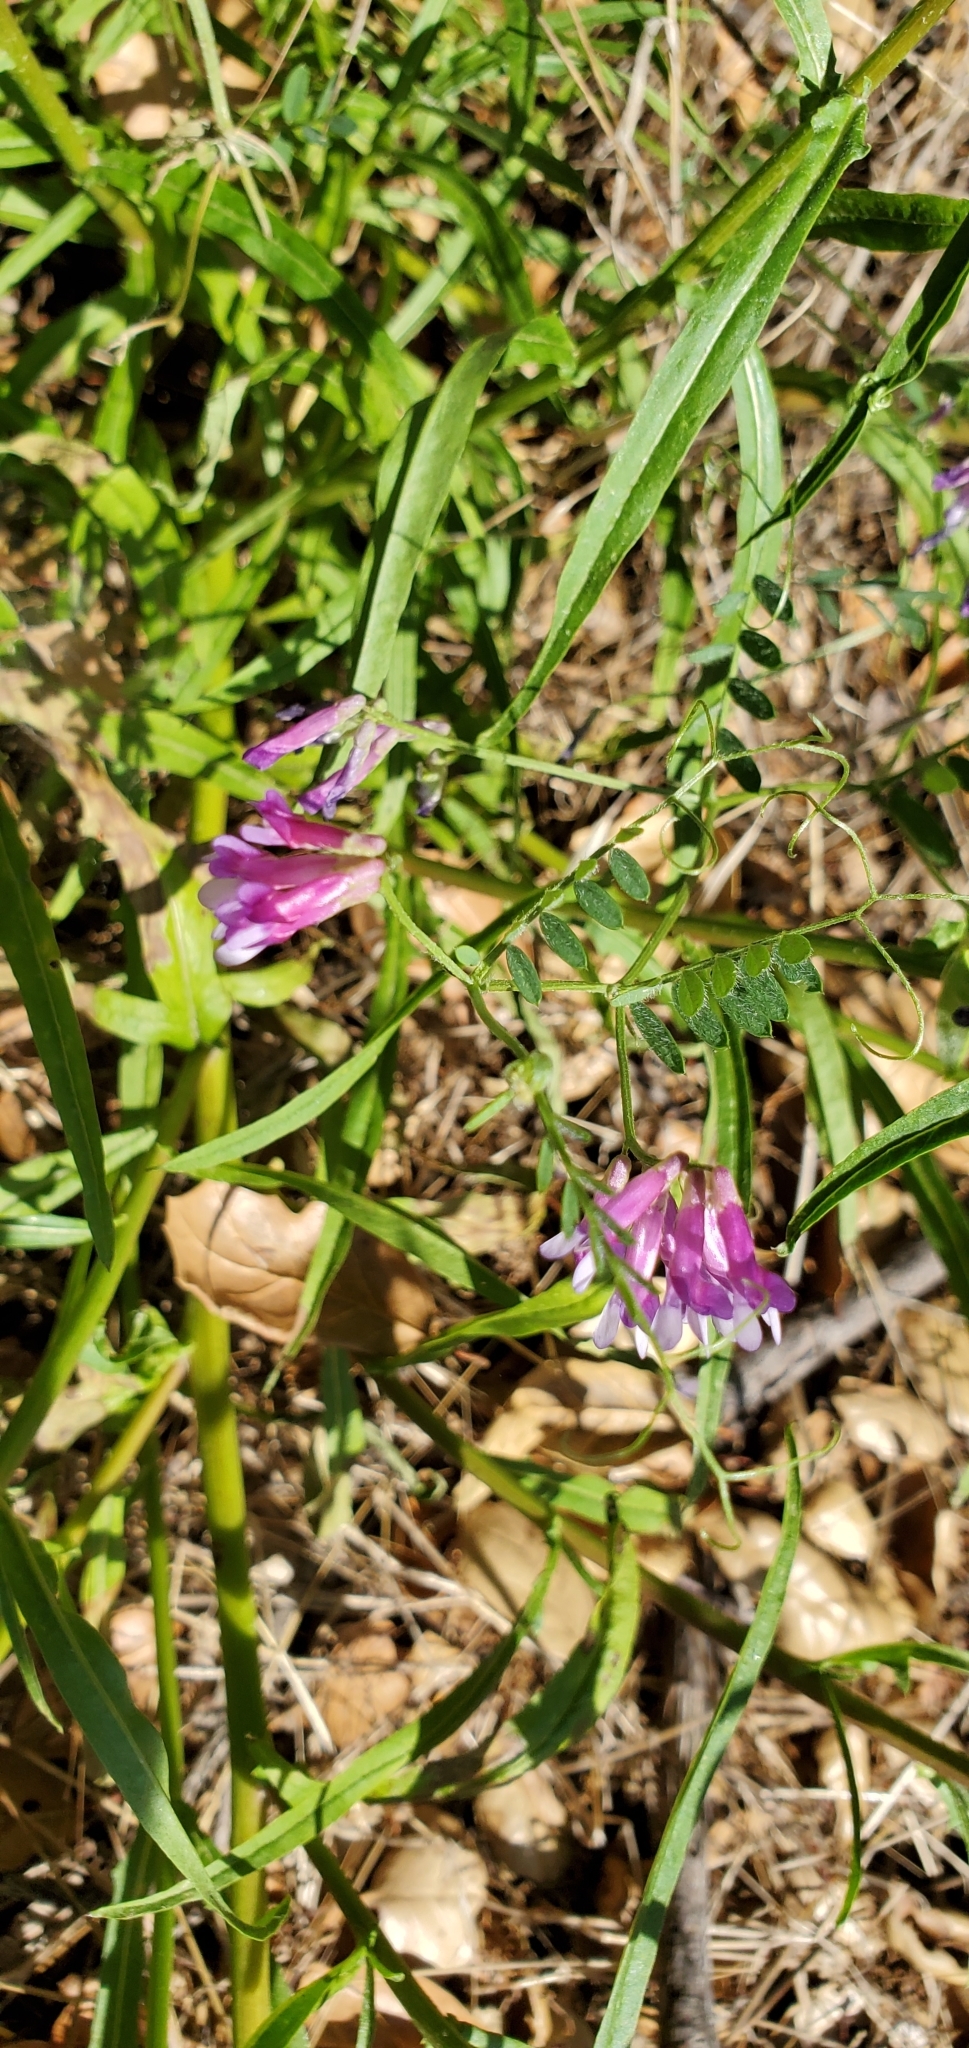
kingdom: Plantae
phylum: Tracheophyta
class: Magnoliopsida
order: Fabales
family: Fabaceae
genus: Vicia
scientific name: Vicia villosa
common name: Fodder vetch
